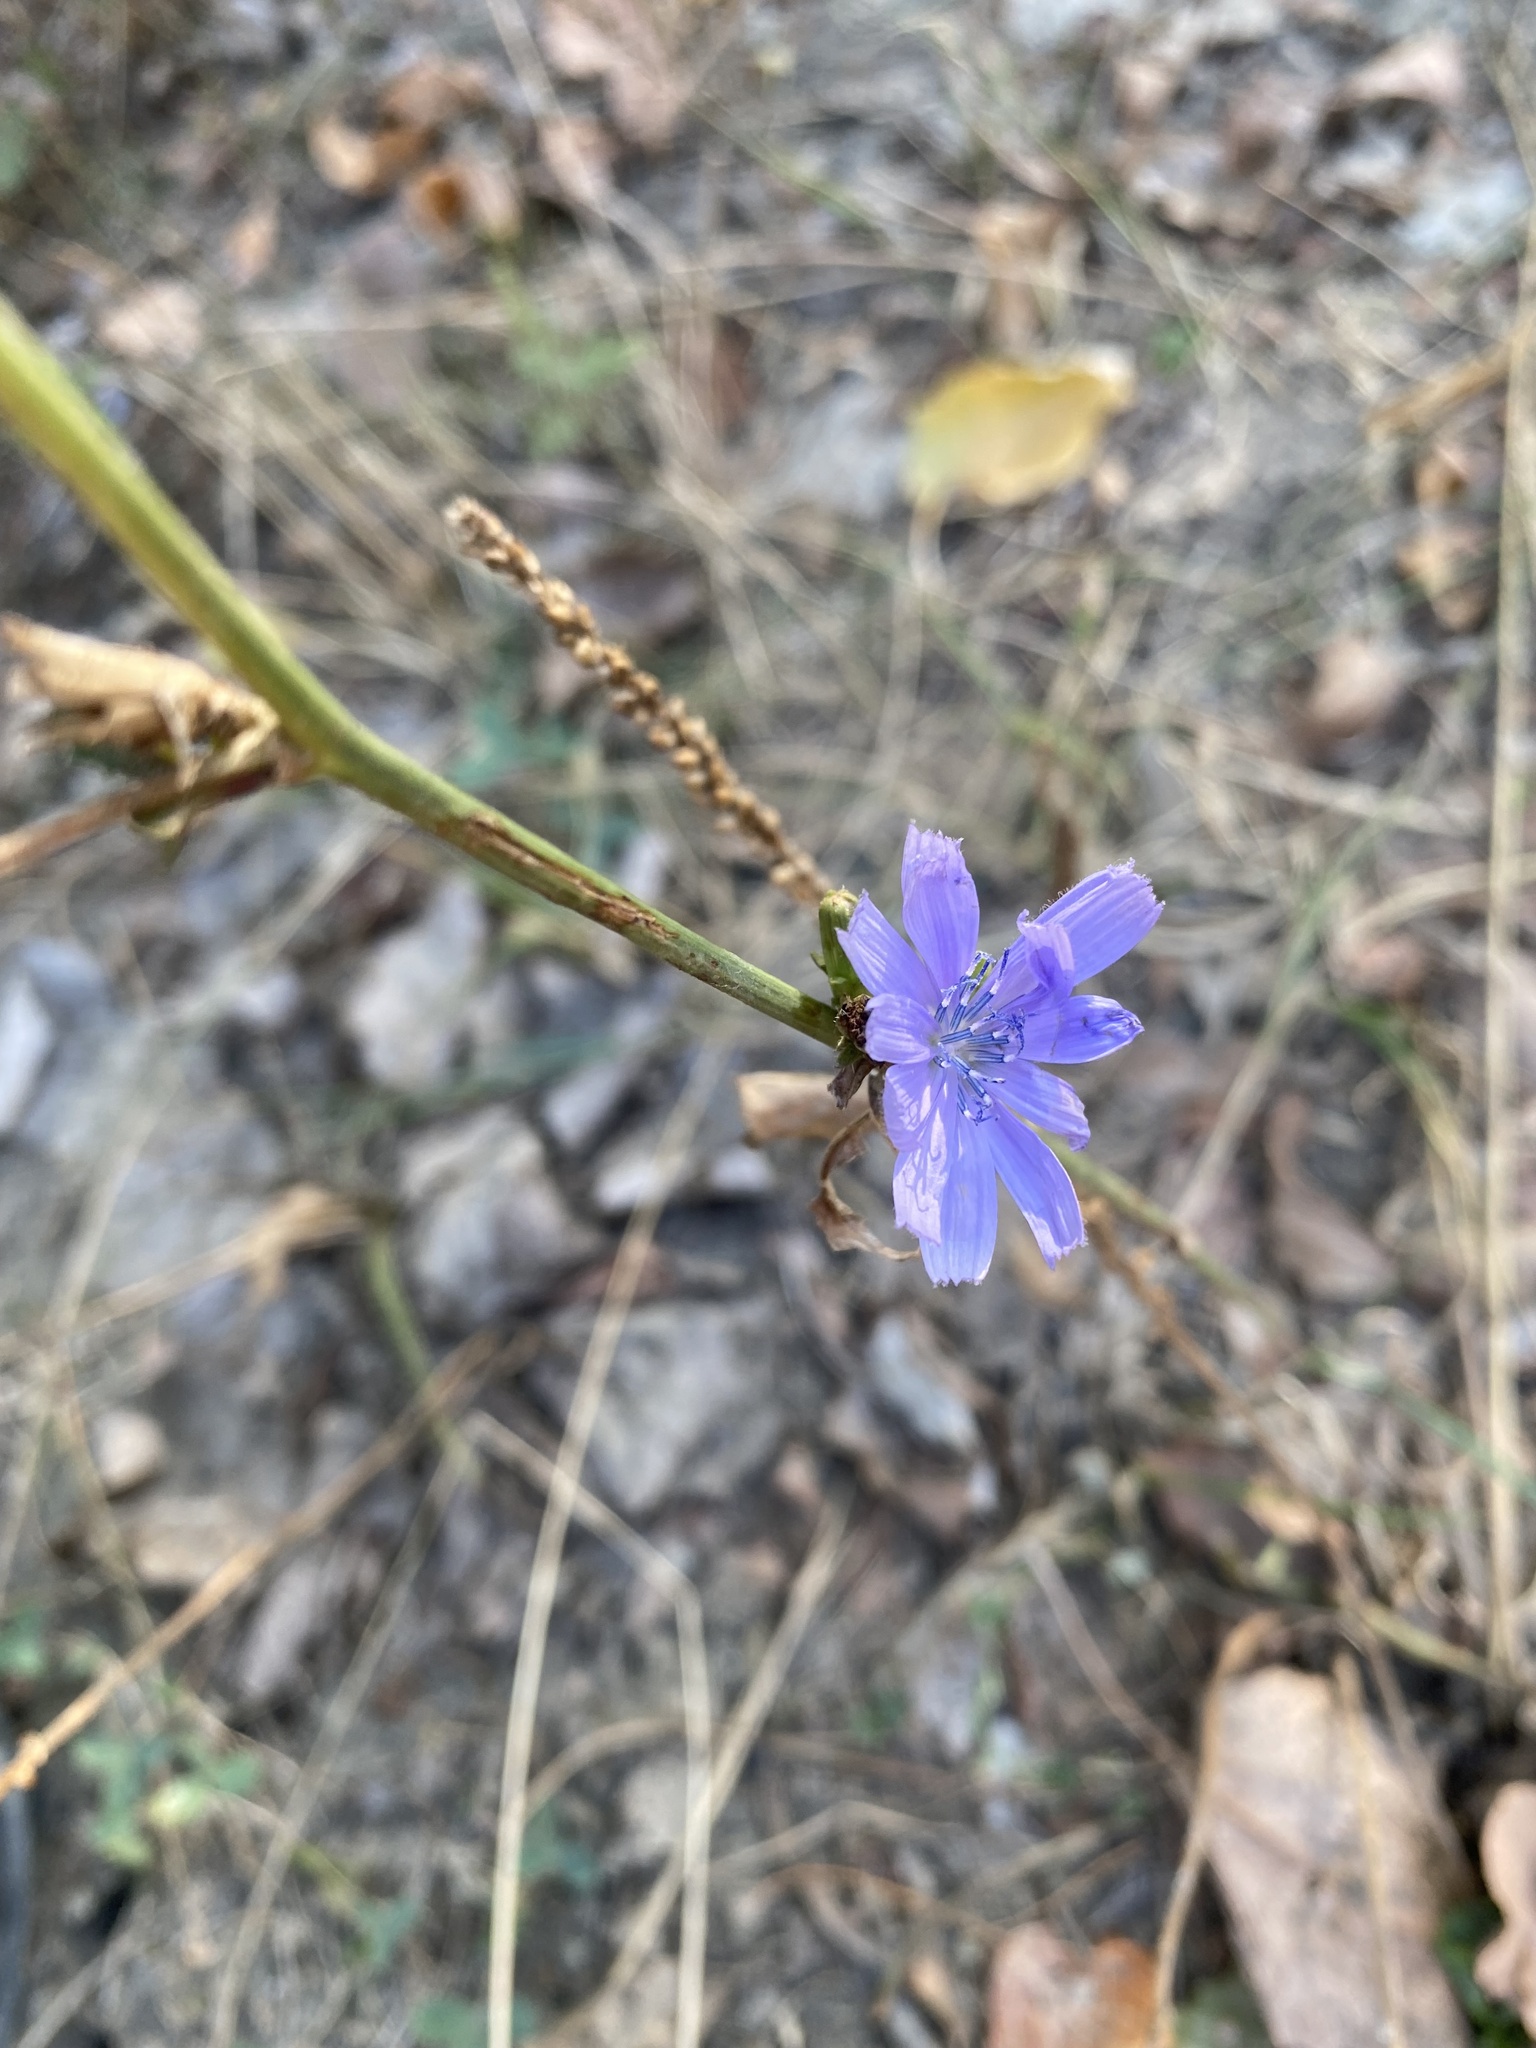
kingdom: Plantae
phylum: Tracheophyta
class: Magnoliopsida
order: Asterales
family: Asteraceae
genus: Cichorium
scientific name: Cichorium intybus
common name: Chicory
